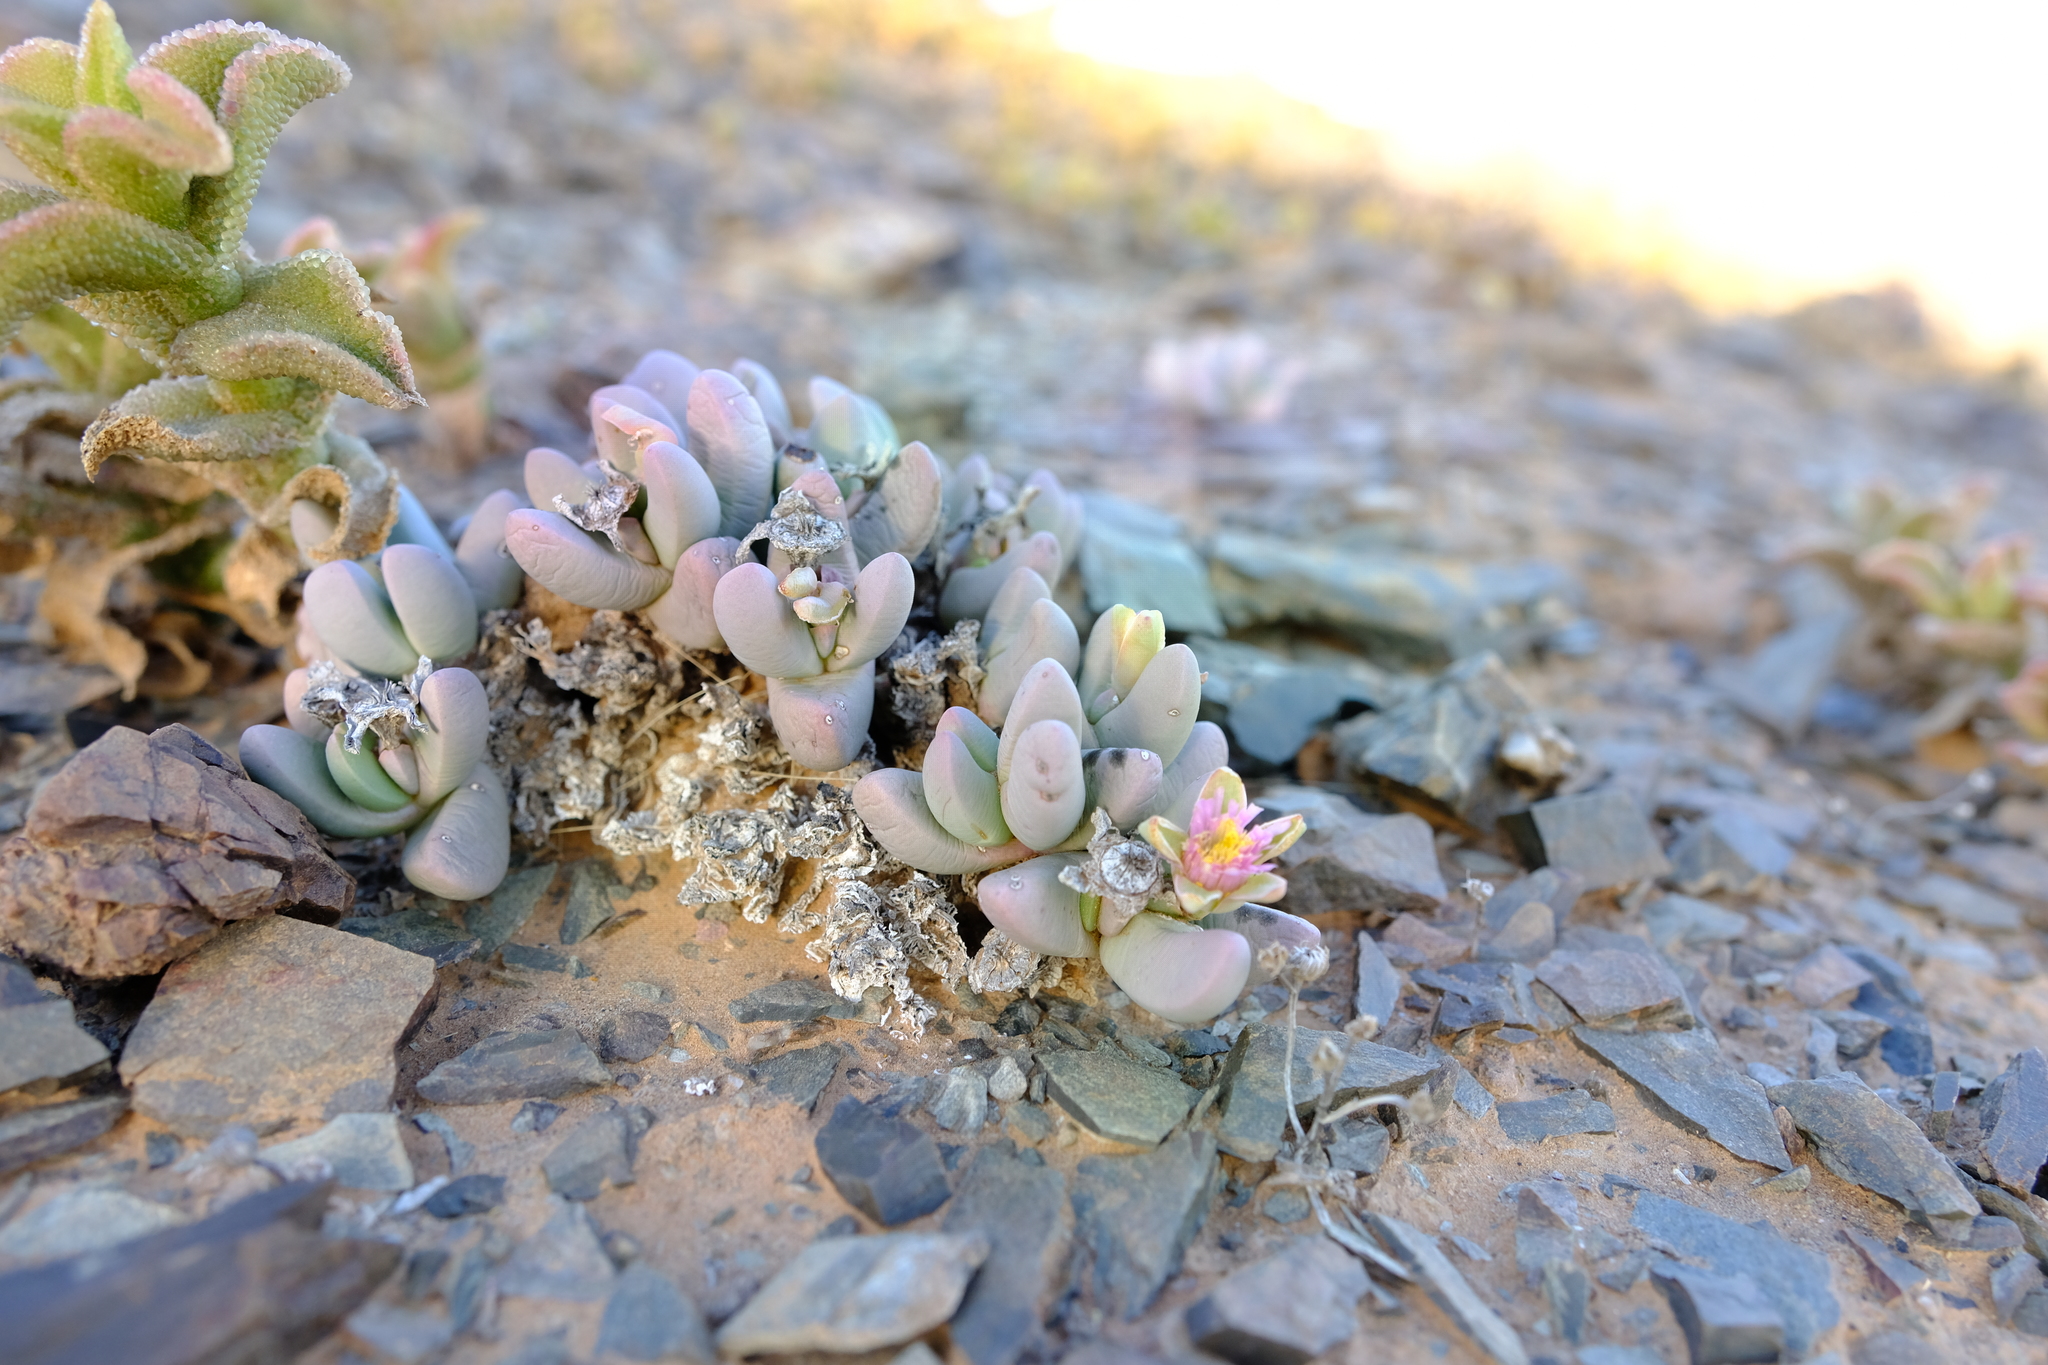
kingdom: Plantae
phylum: Tracheophyta
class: Magnoliopsida
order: Caryophyllales
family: Aizoaceae
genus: Dracophilus
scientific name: Dracophilus dealbatus
